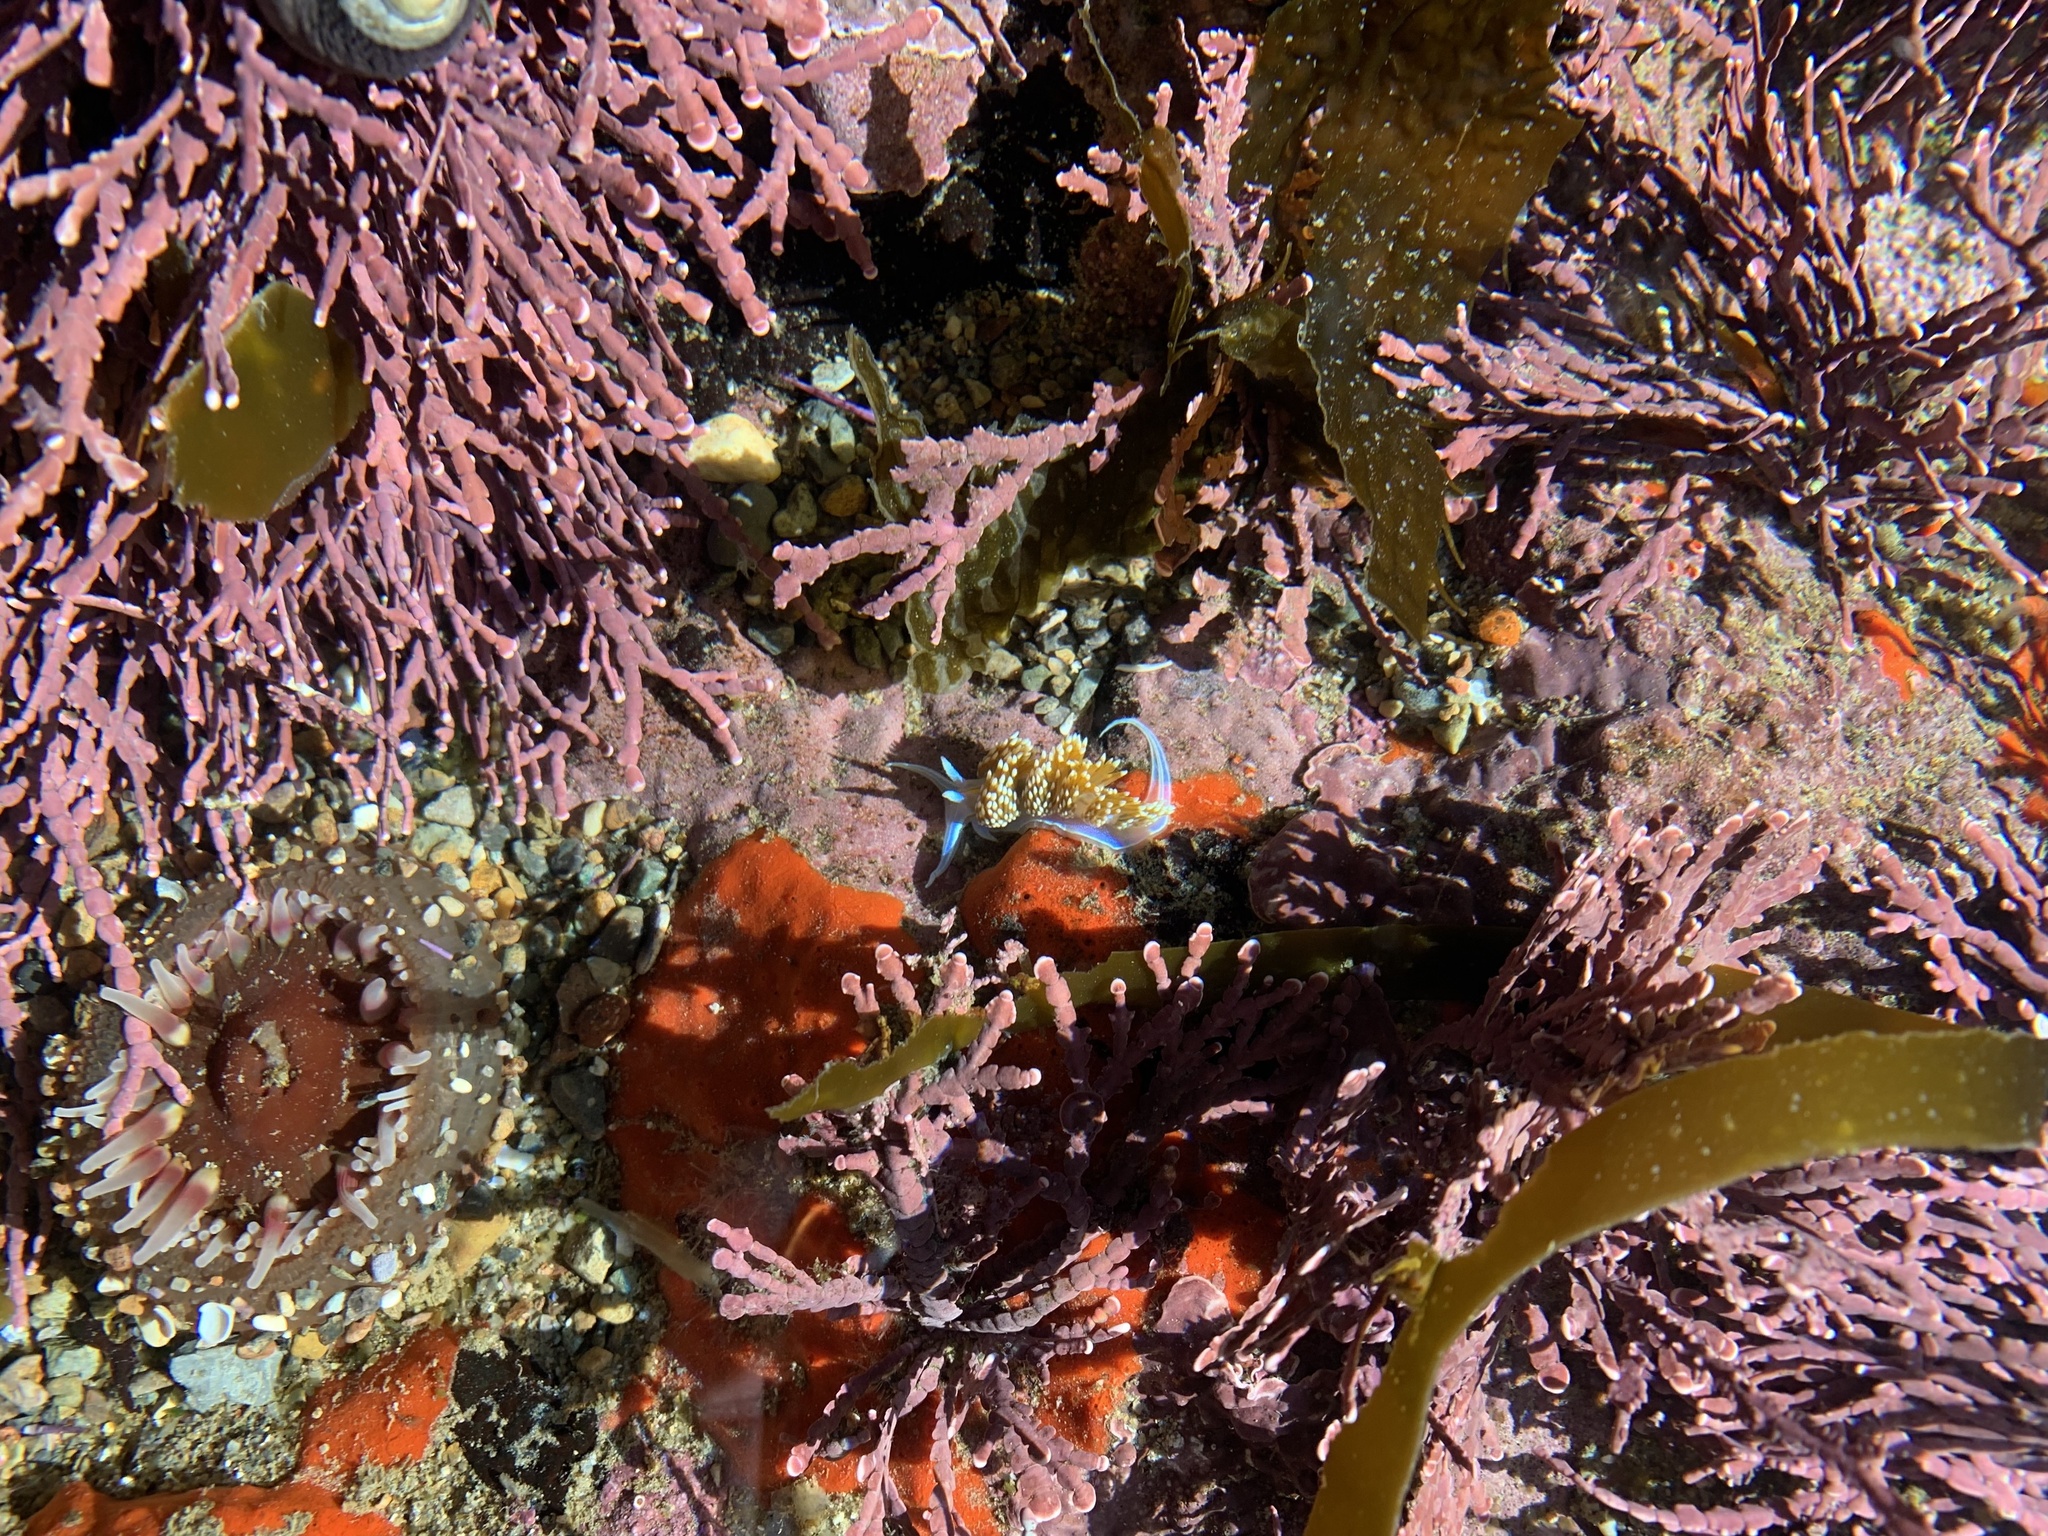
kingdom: Animalia
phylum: Mollusca
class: Gastropoda
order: Nudibranchia
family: Myrrhinidae
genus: Hermissenda
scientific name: Hermissenda opalescens
